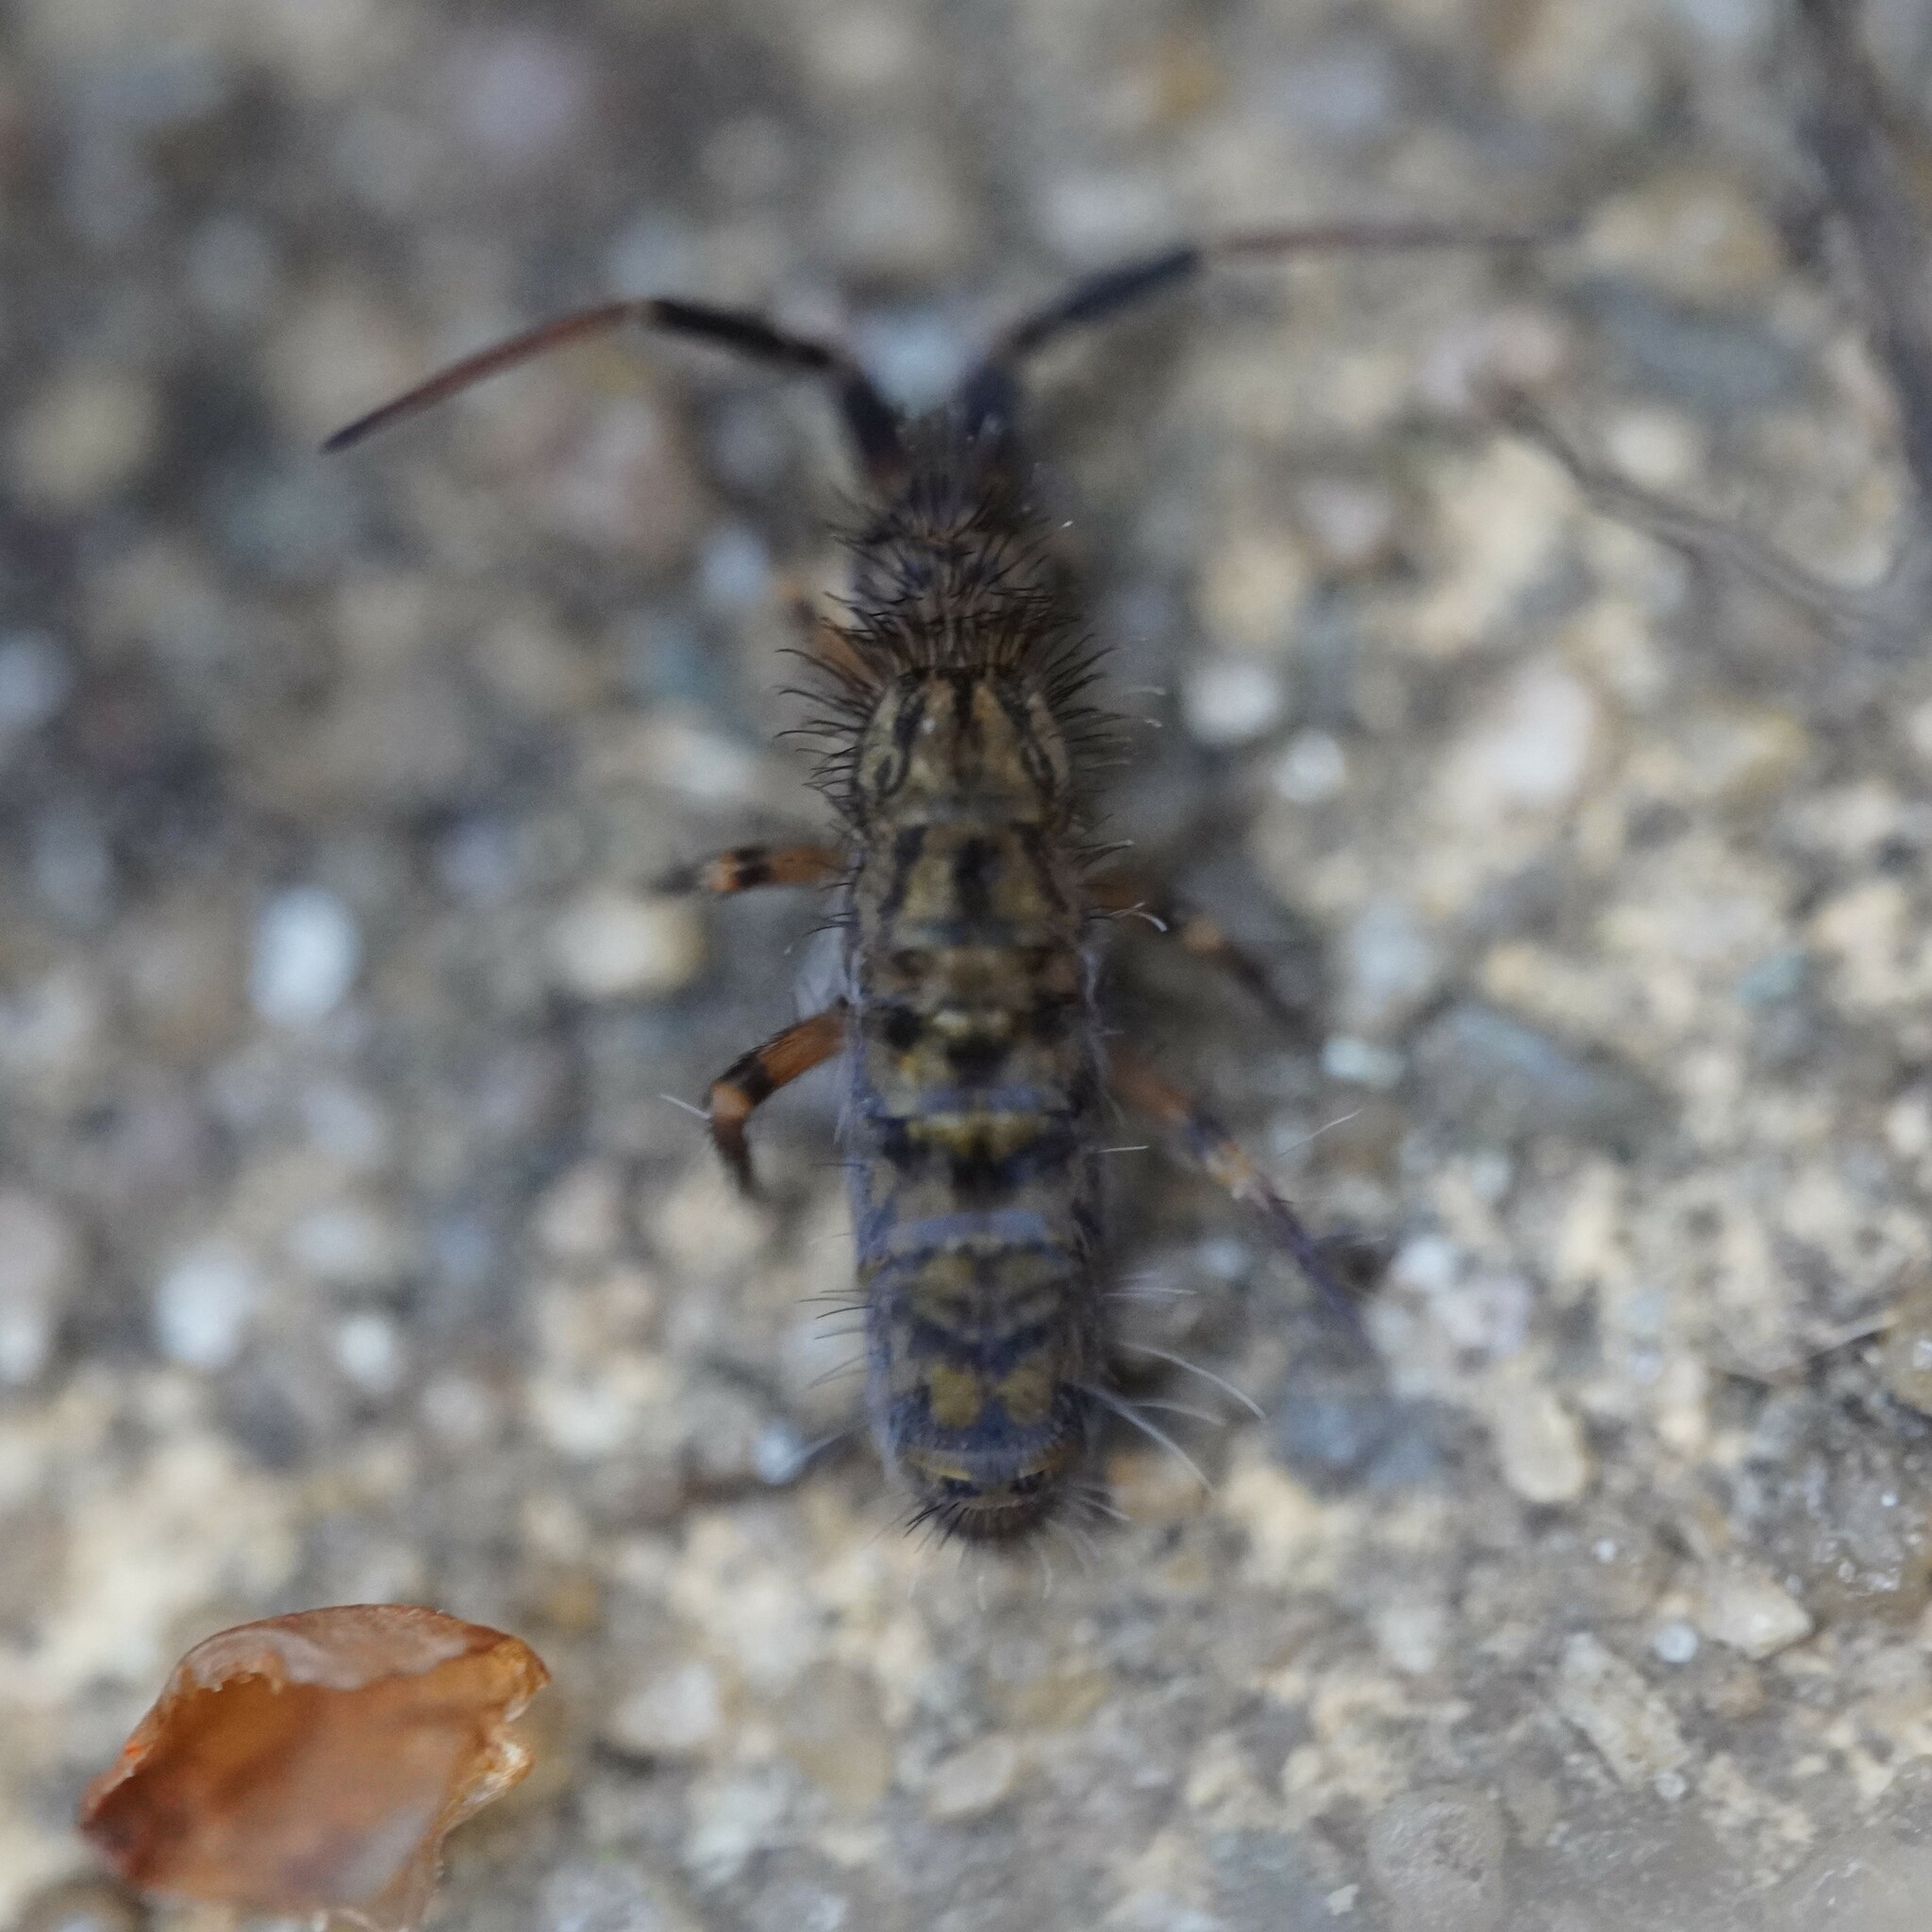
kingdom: Animalia
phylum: Arthropoda
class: Collembola
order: Entomobryomorpha
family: Orchesellidae
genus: Orchesella
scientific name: Orchesella villosa
